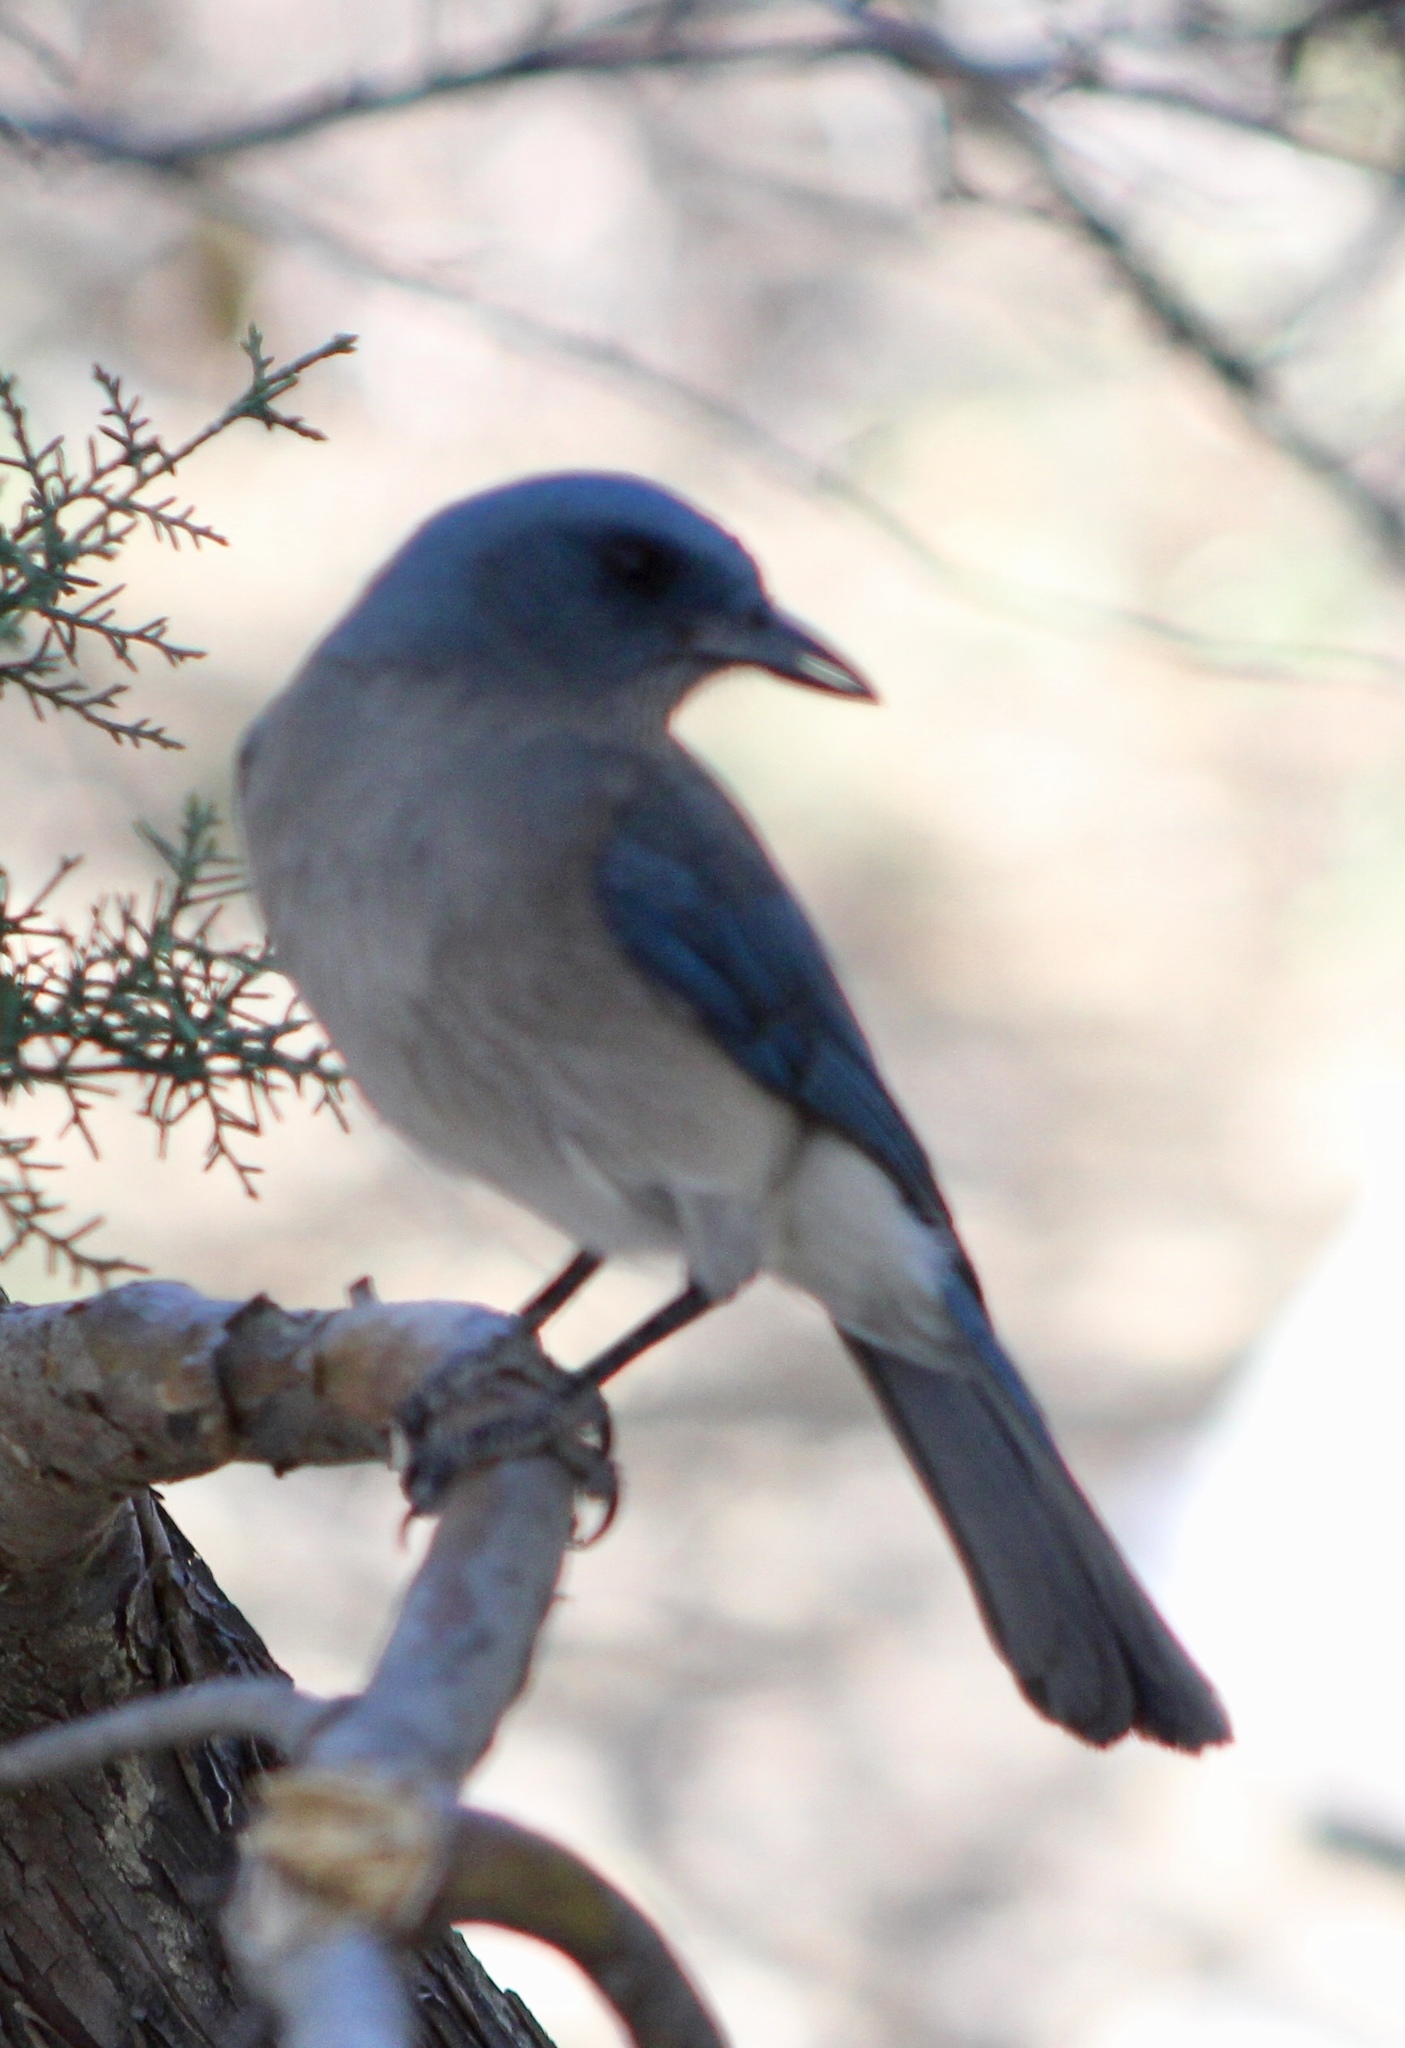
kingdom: Animalia
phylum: Chordata
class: Aves
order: Passeriformes
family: Corvidae
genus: Aphelocoma
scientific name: Aphelocoma wollweberi
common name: Mexican jay
